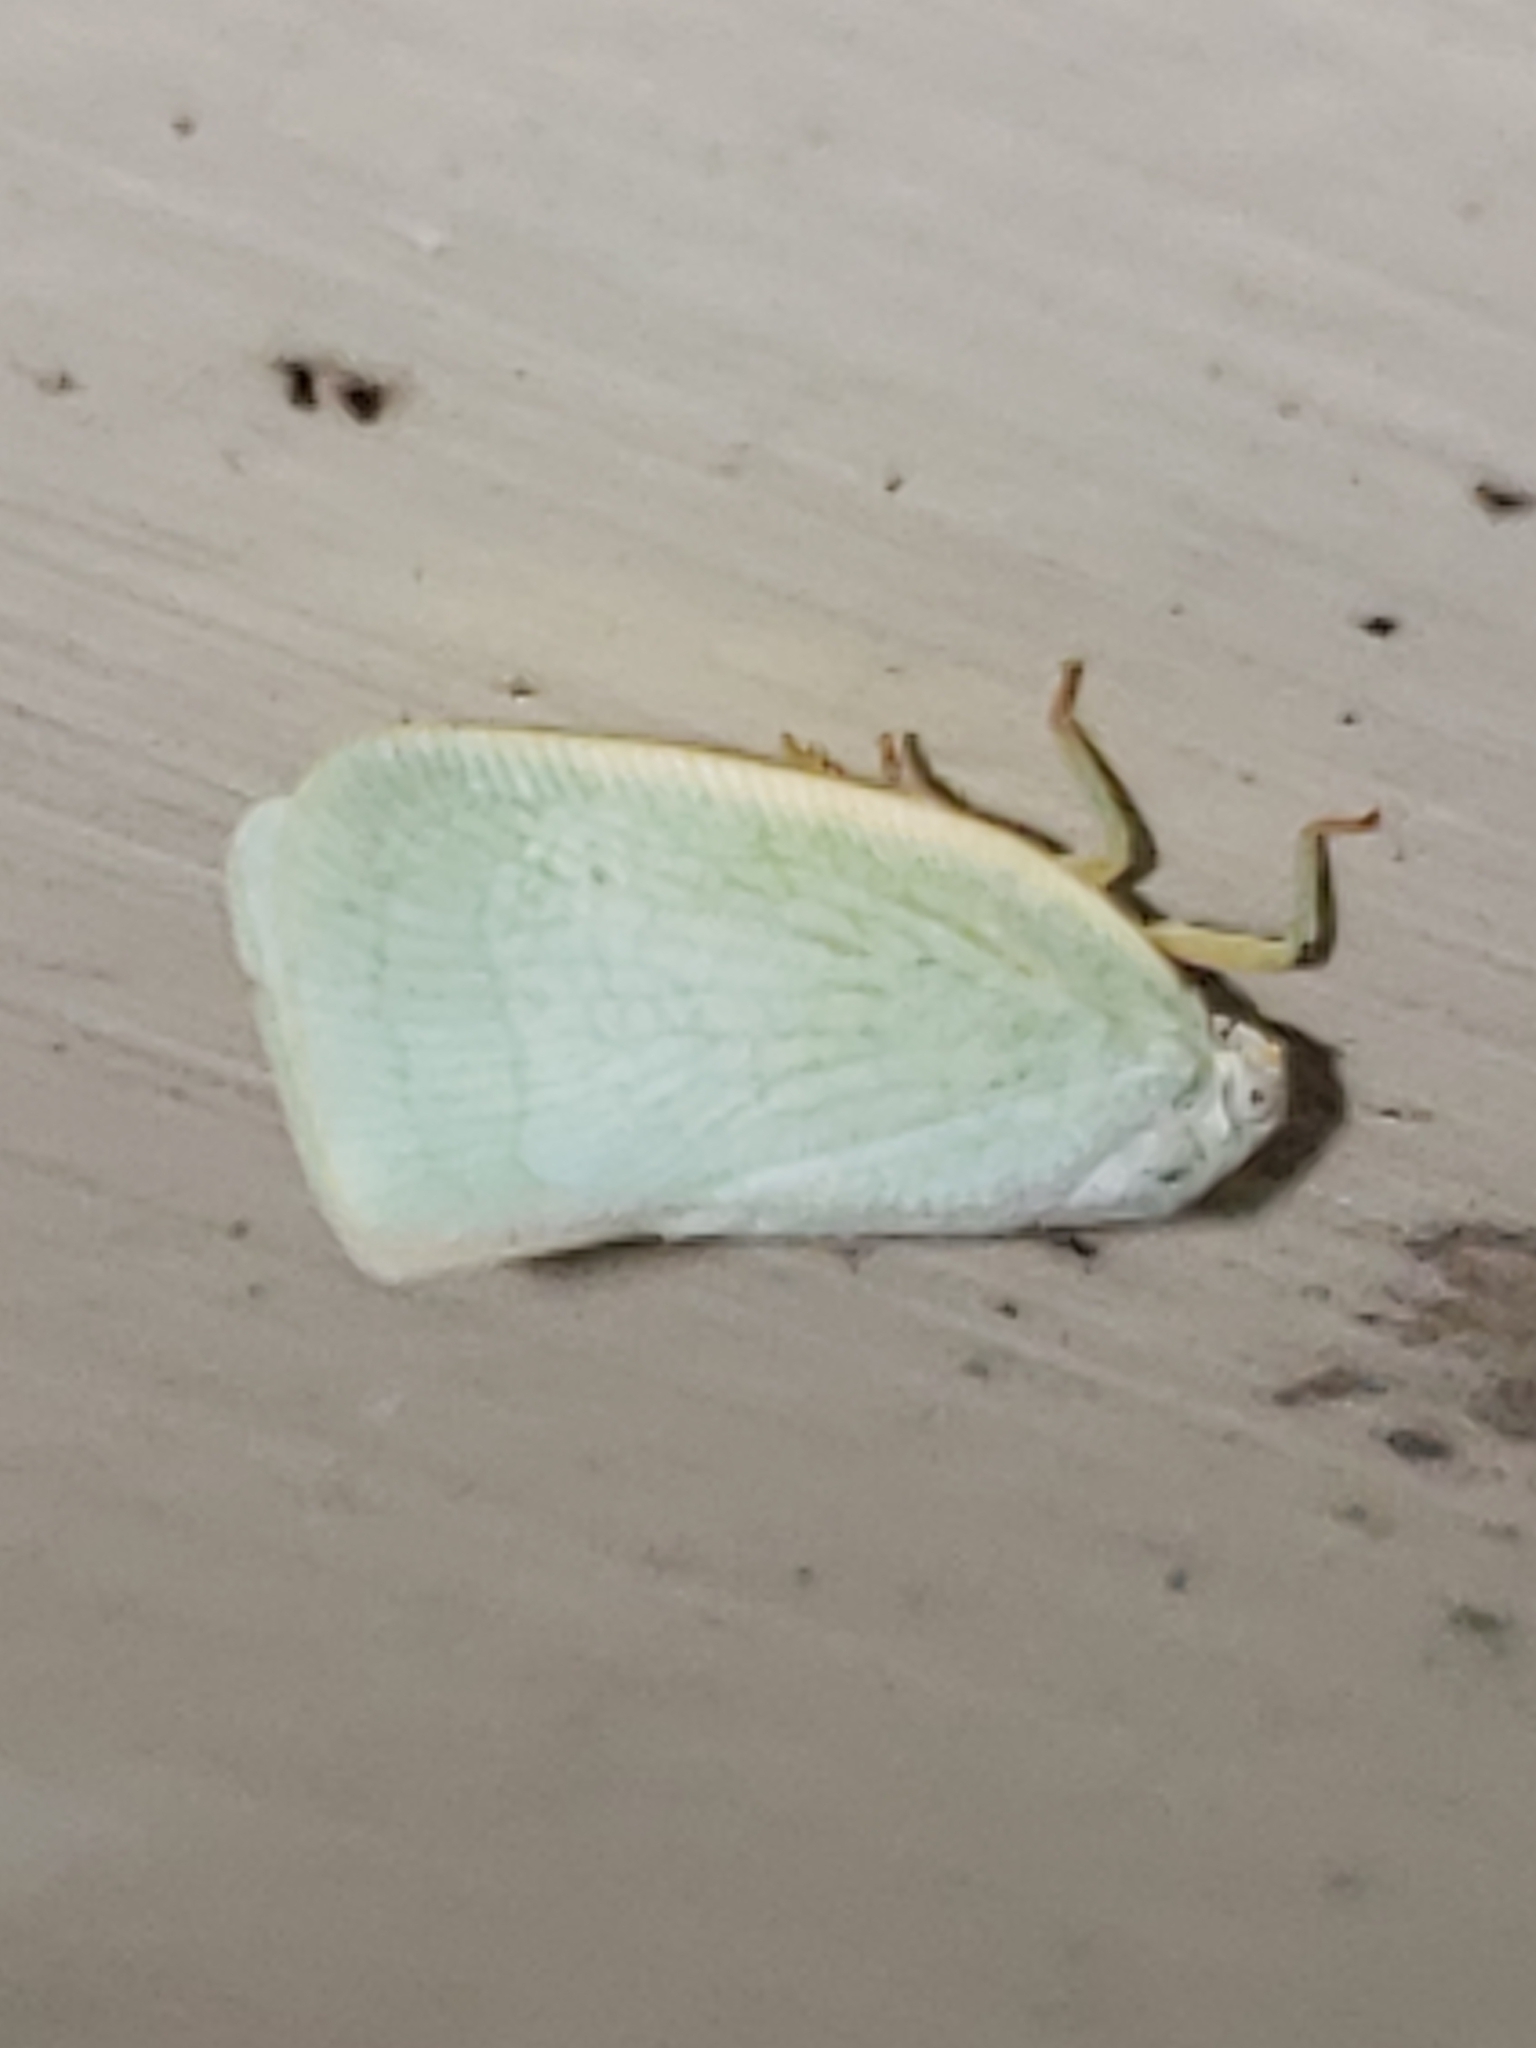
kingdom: Animalia
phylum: Arthropoda
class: Insecta
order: Hemiptera
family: Flatidae
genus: Flatormenis
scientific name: Flatormenis proxima
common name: Northern flatid planthopper
